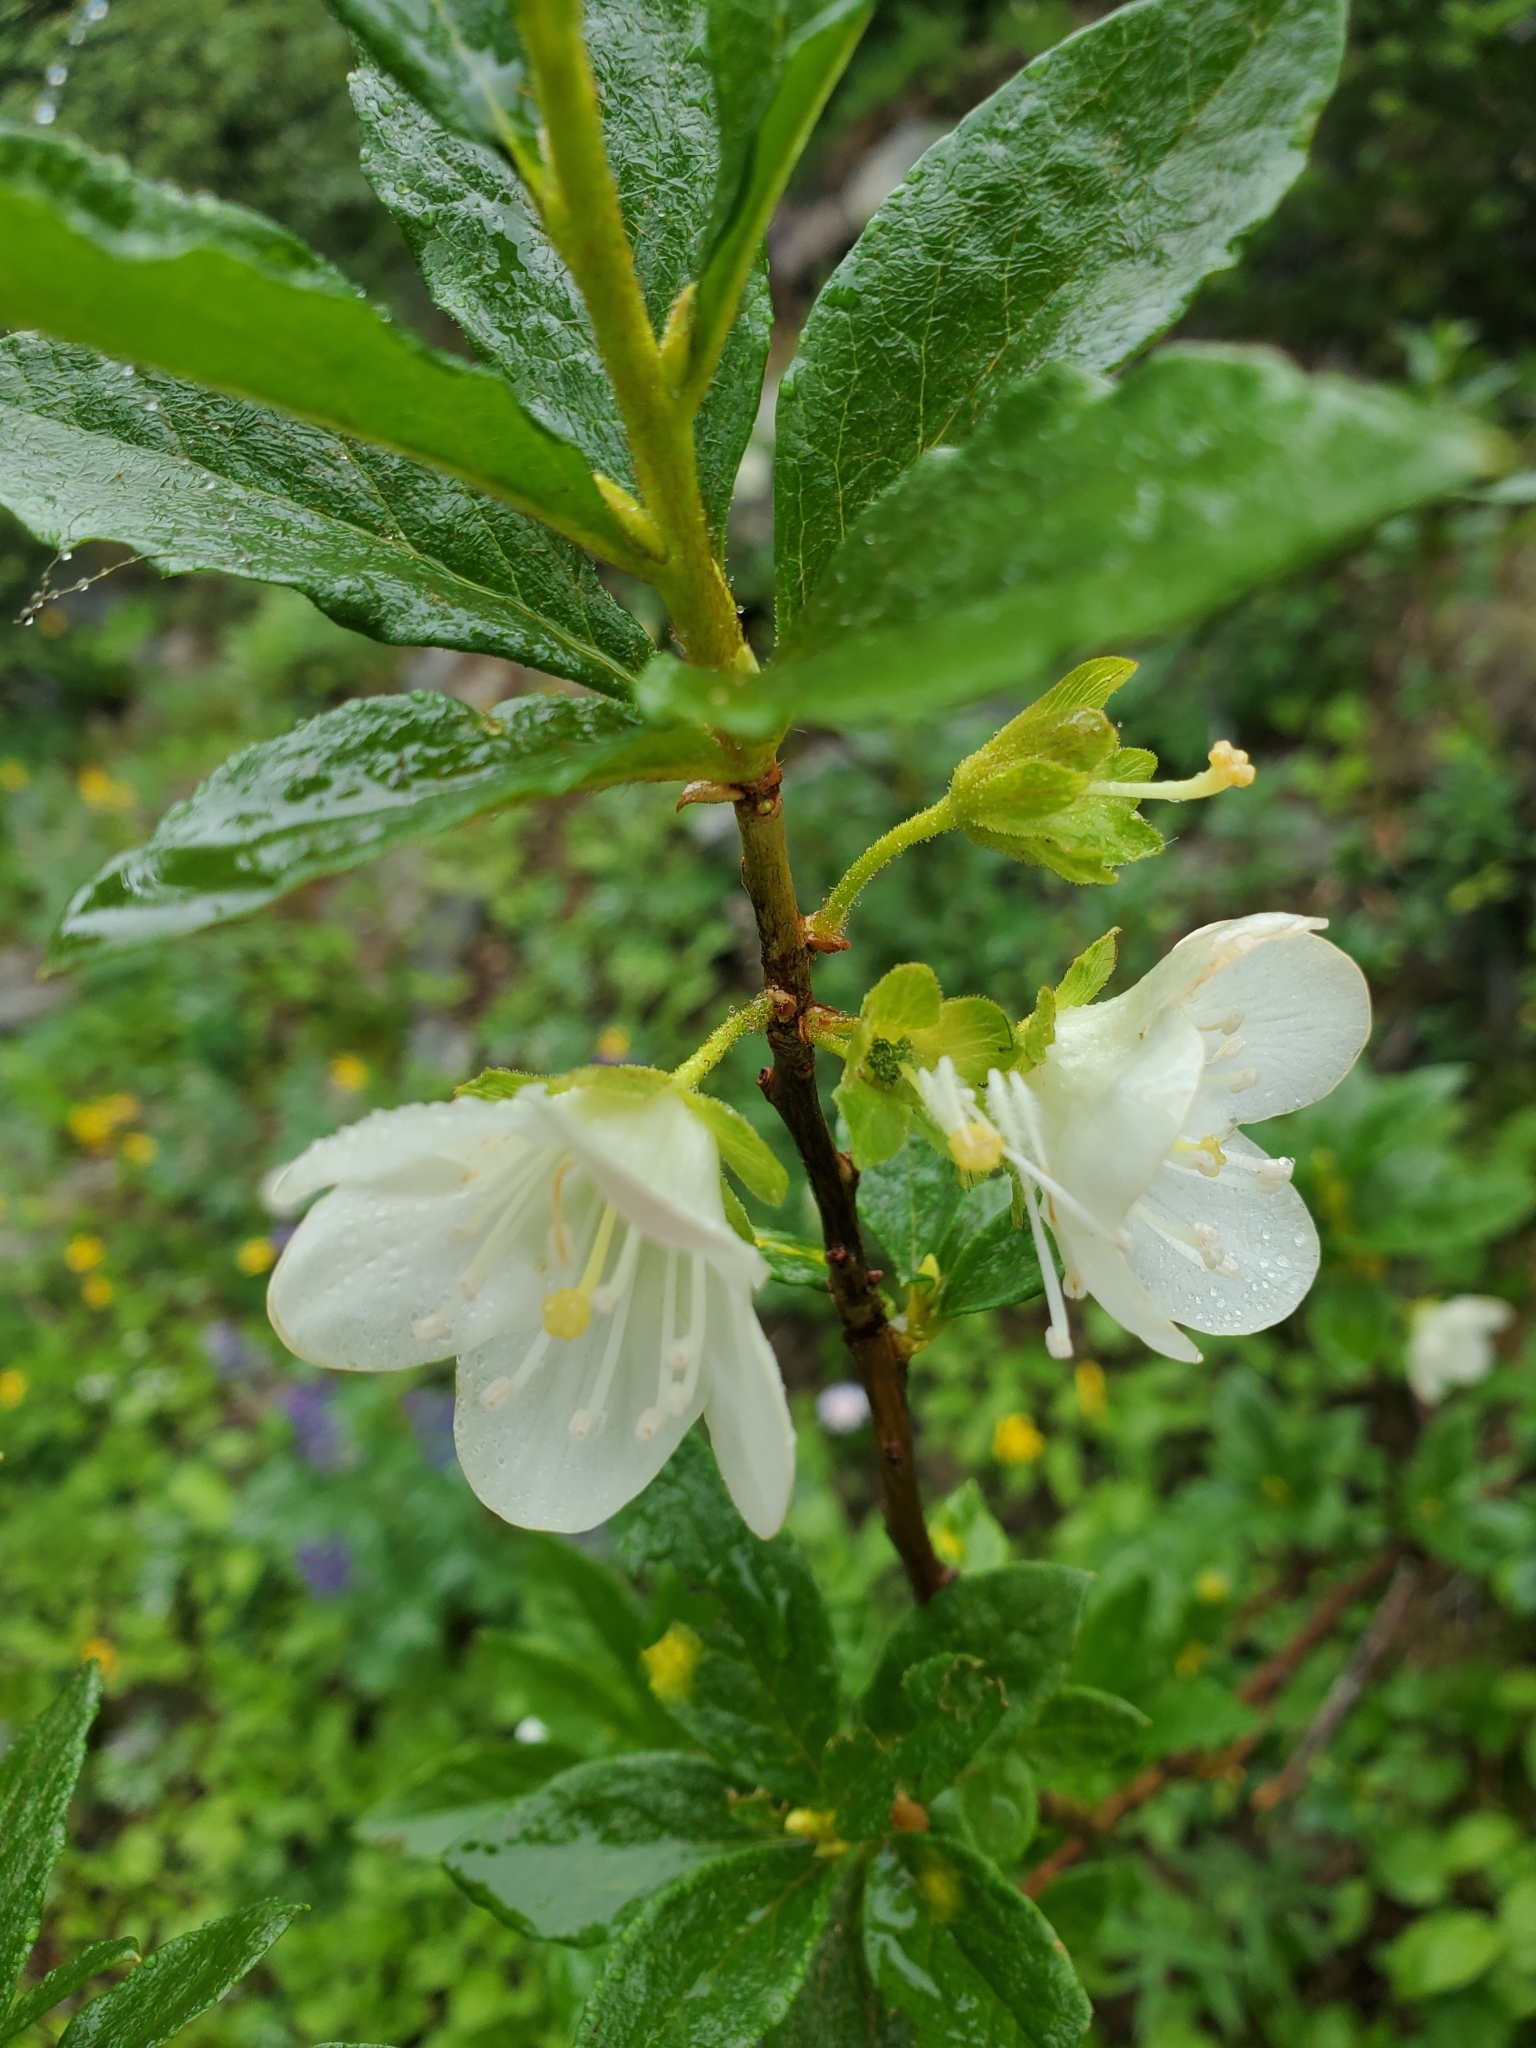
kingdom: Plantae
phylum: Tracheophyta
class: Magnoliopsida
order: Ericales
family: Ericaceae
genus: Rhododendron
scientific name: Rhododendron albiflorum
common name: White rhododendron
